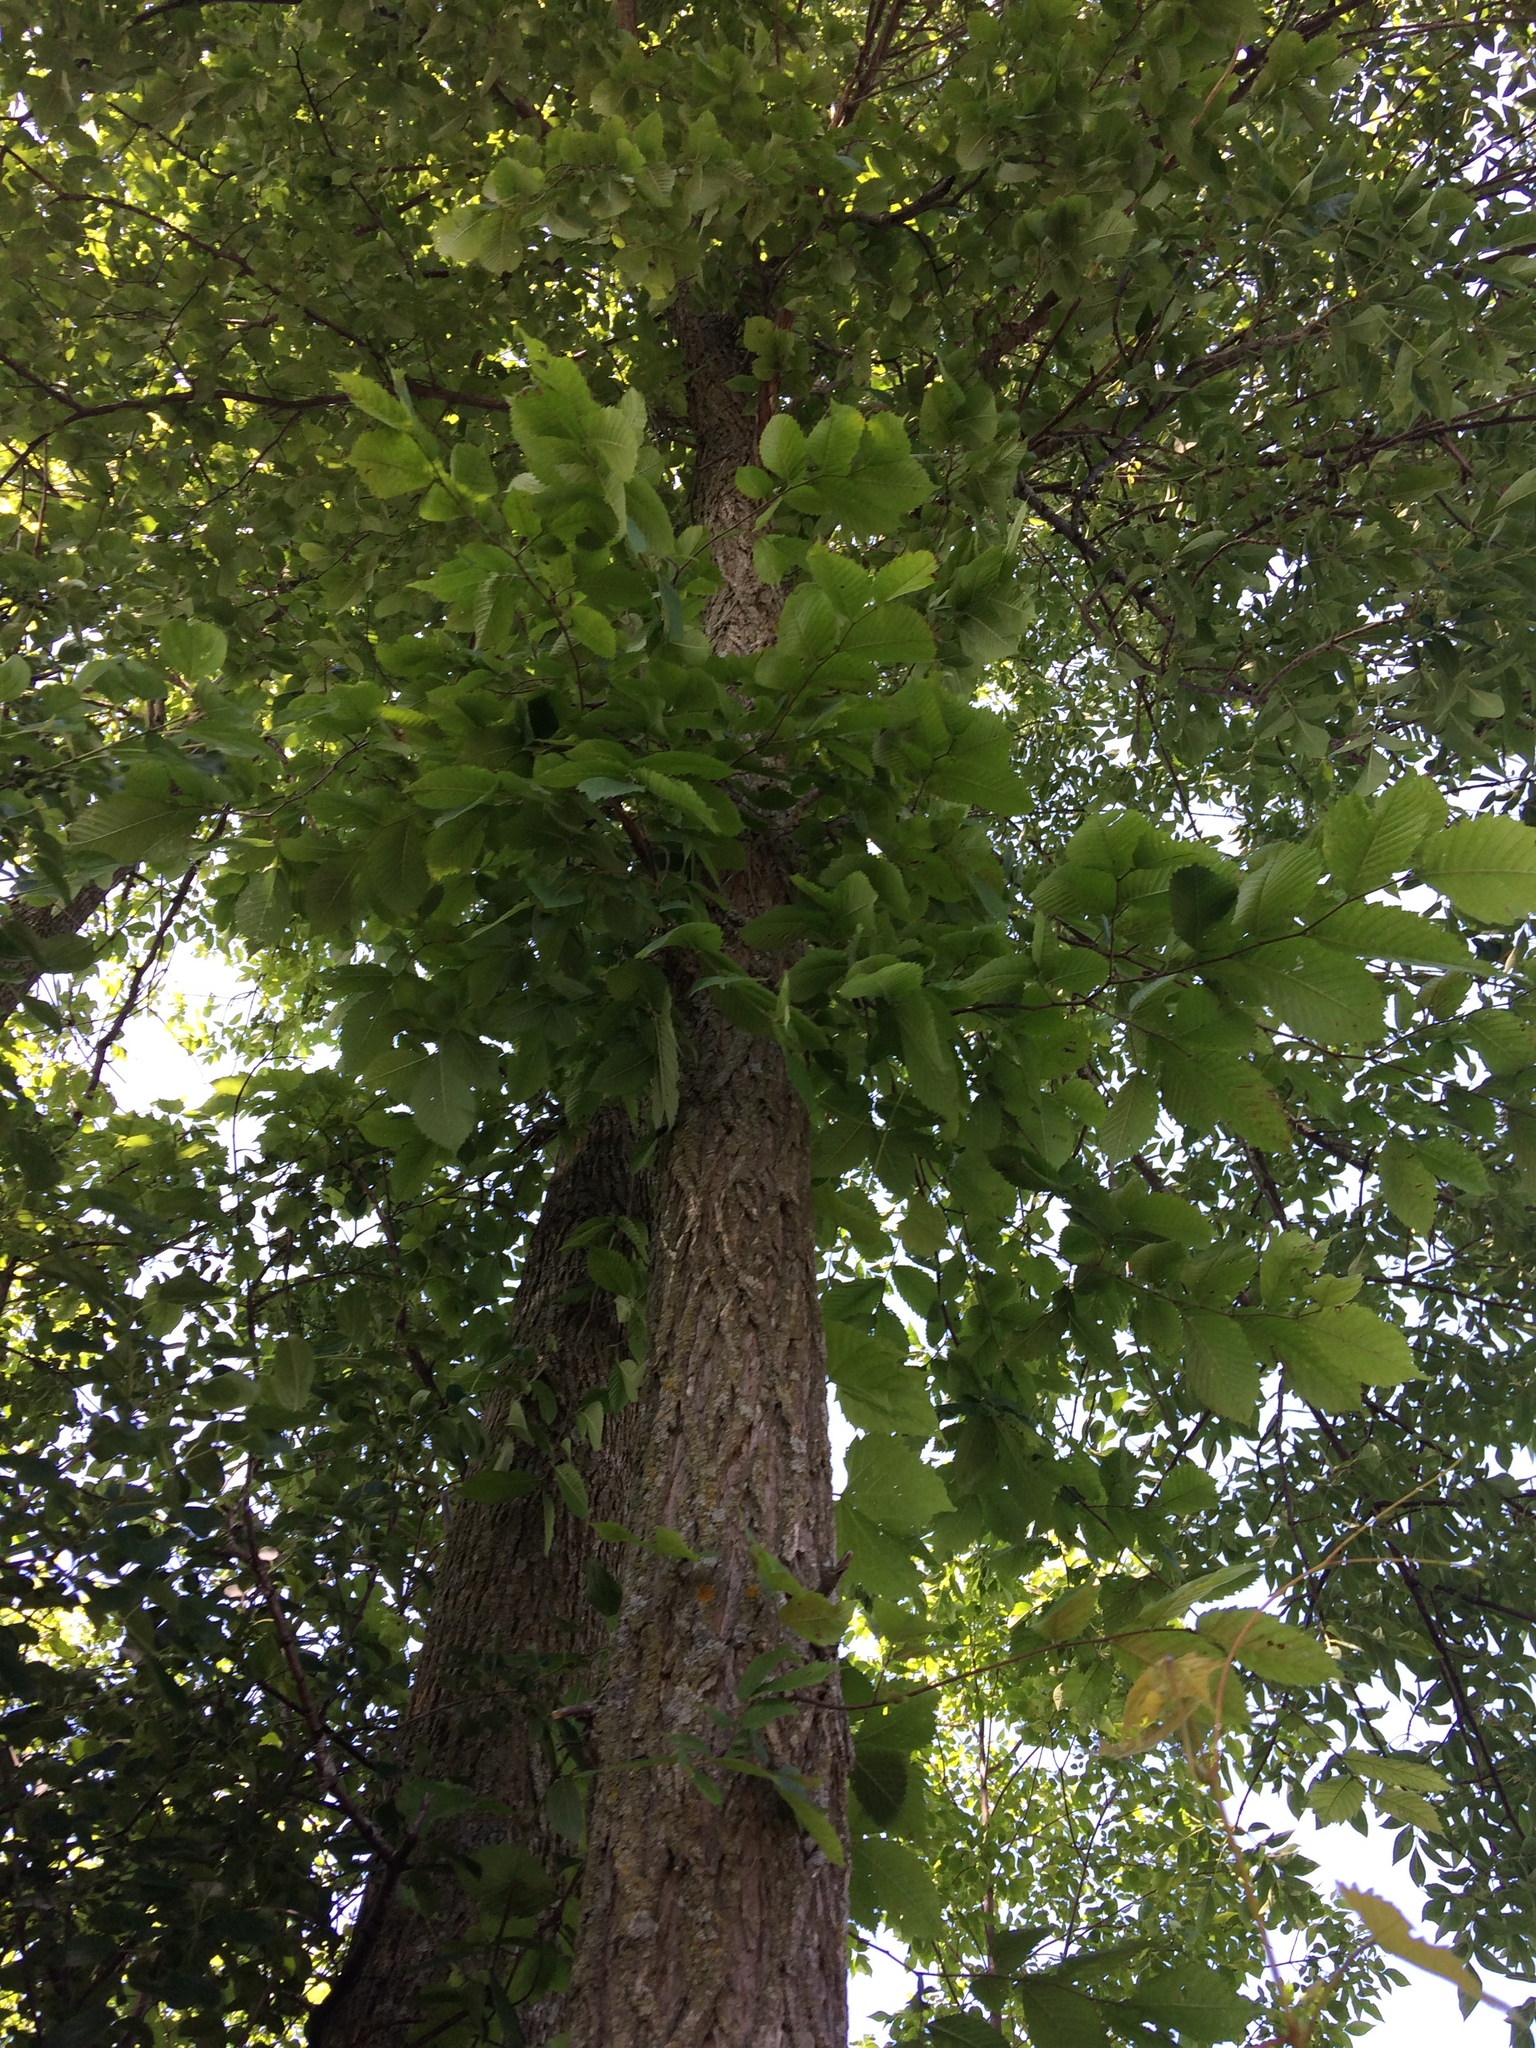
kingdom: Plantae
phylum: Tracheophyta
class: Magnoliopsida
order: Rosales
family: Ulmaceae
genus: Ulmus
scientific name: Ulmus americana
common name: American elm
